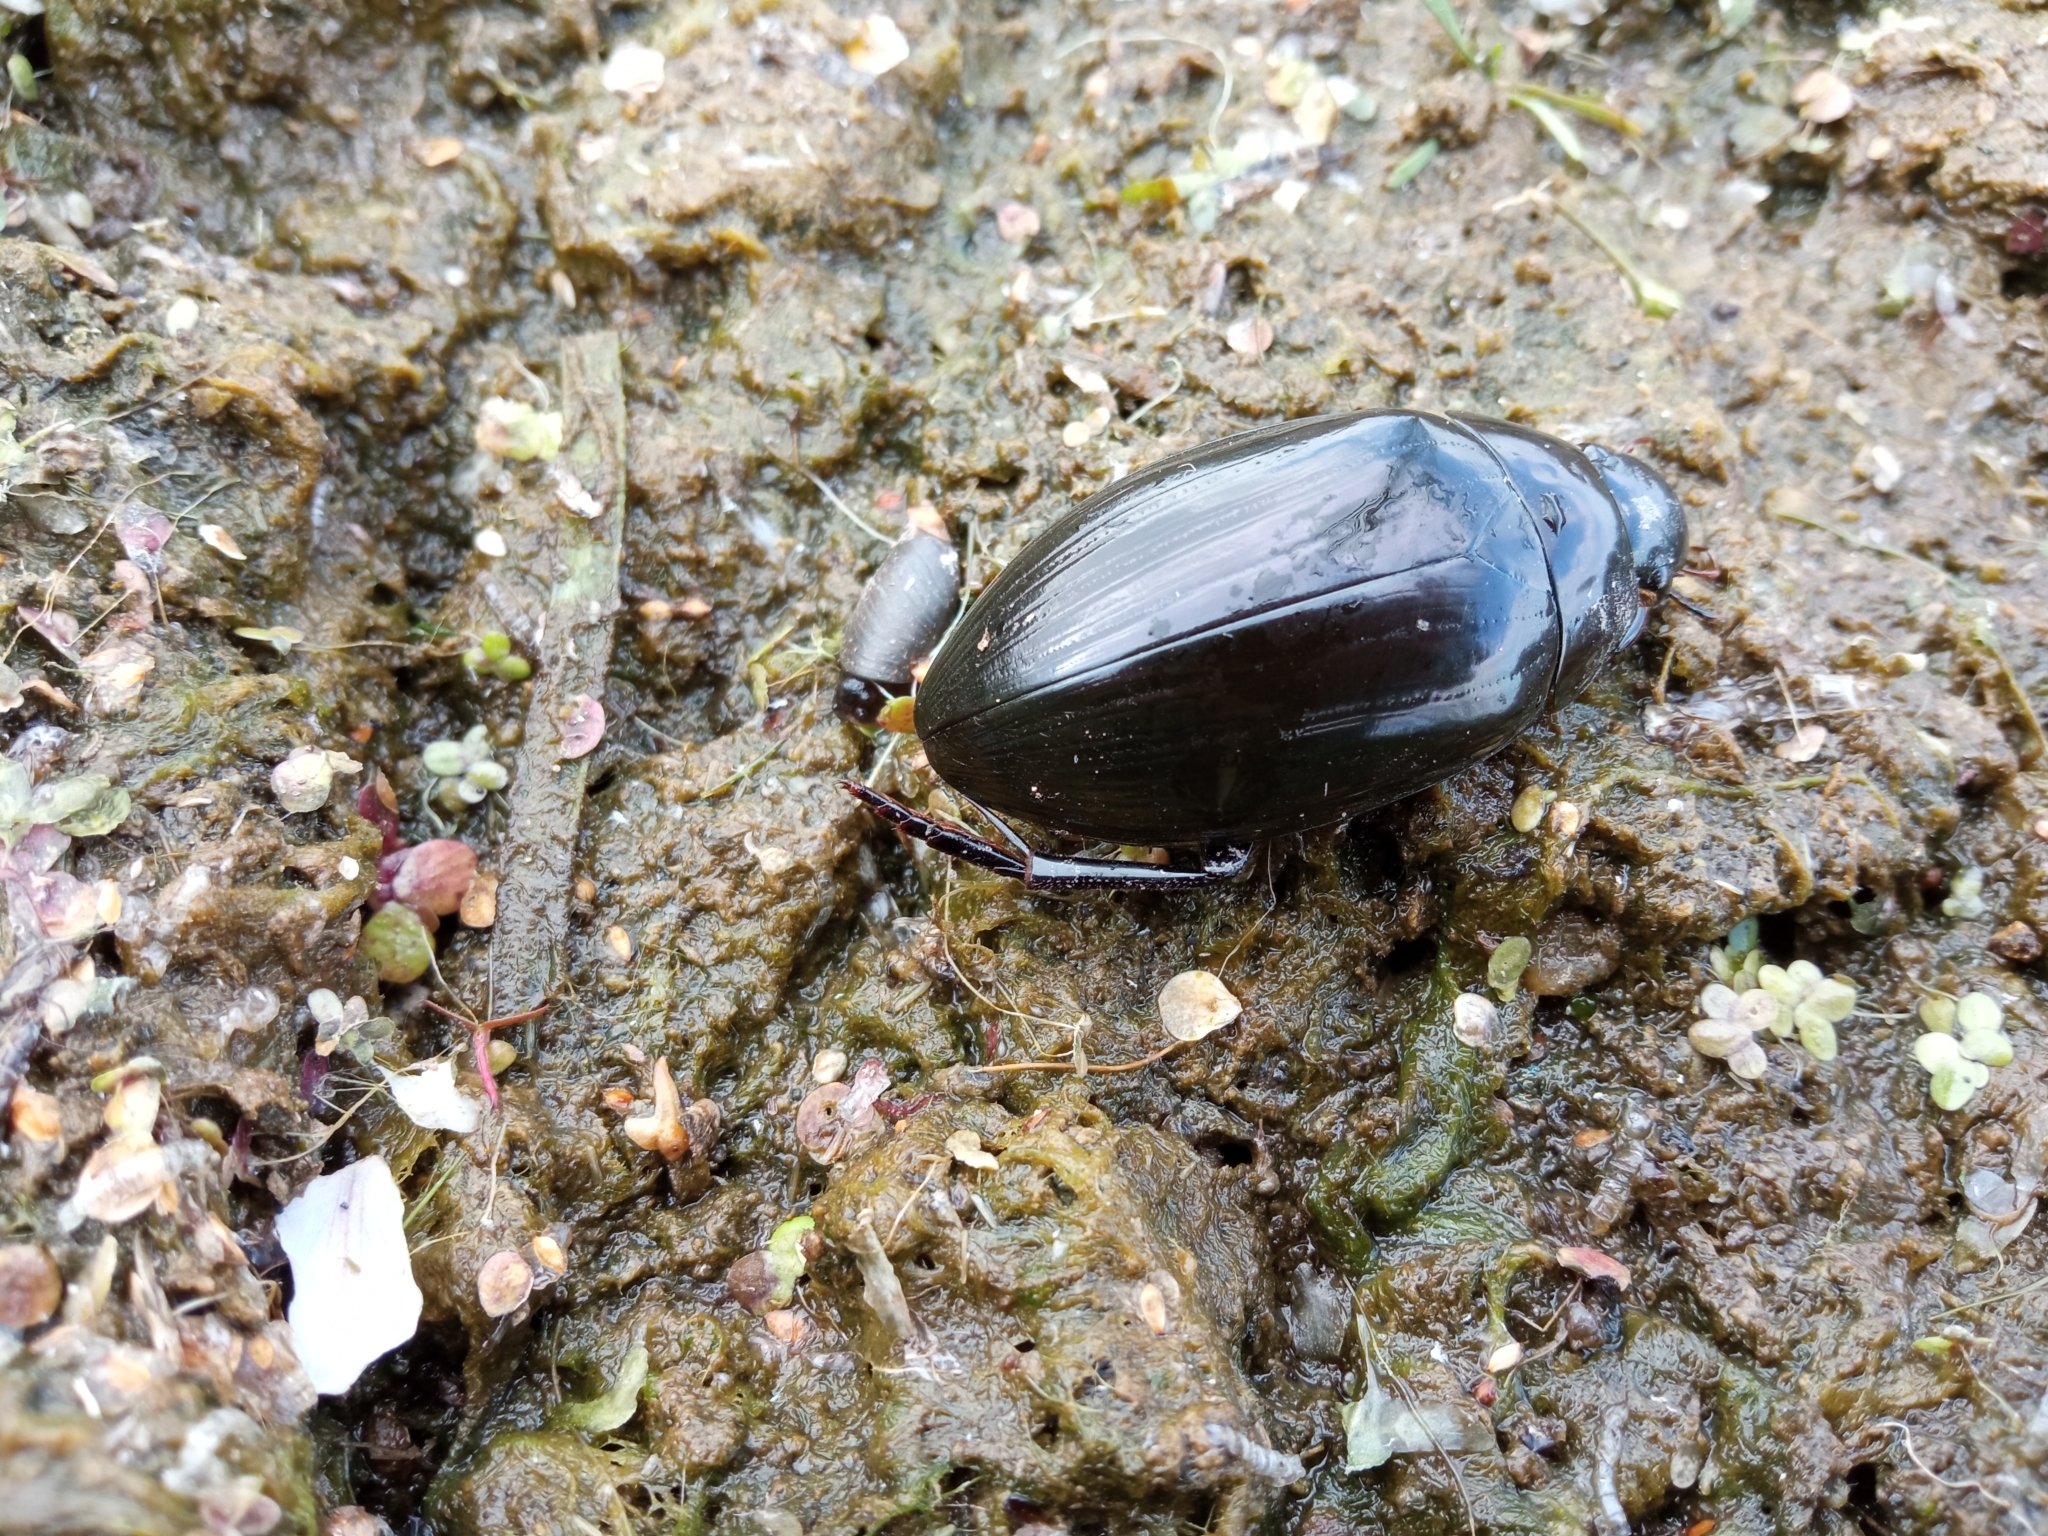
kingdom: Animalia
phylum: Arthropoda
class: Insecta
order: Coleoptera
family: Hydrophilidae
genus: Hydrophilus
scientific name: Hydrophilus aterrimus
